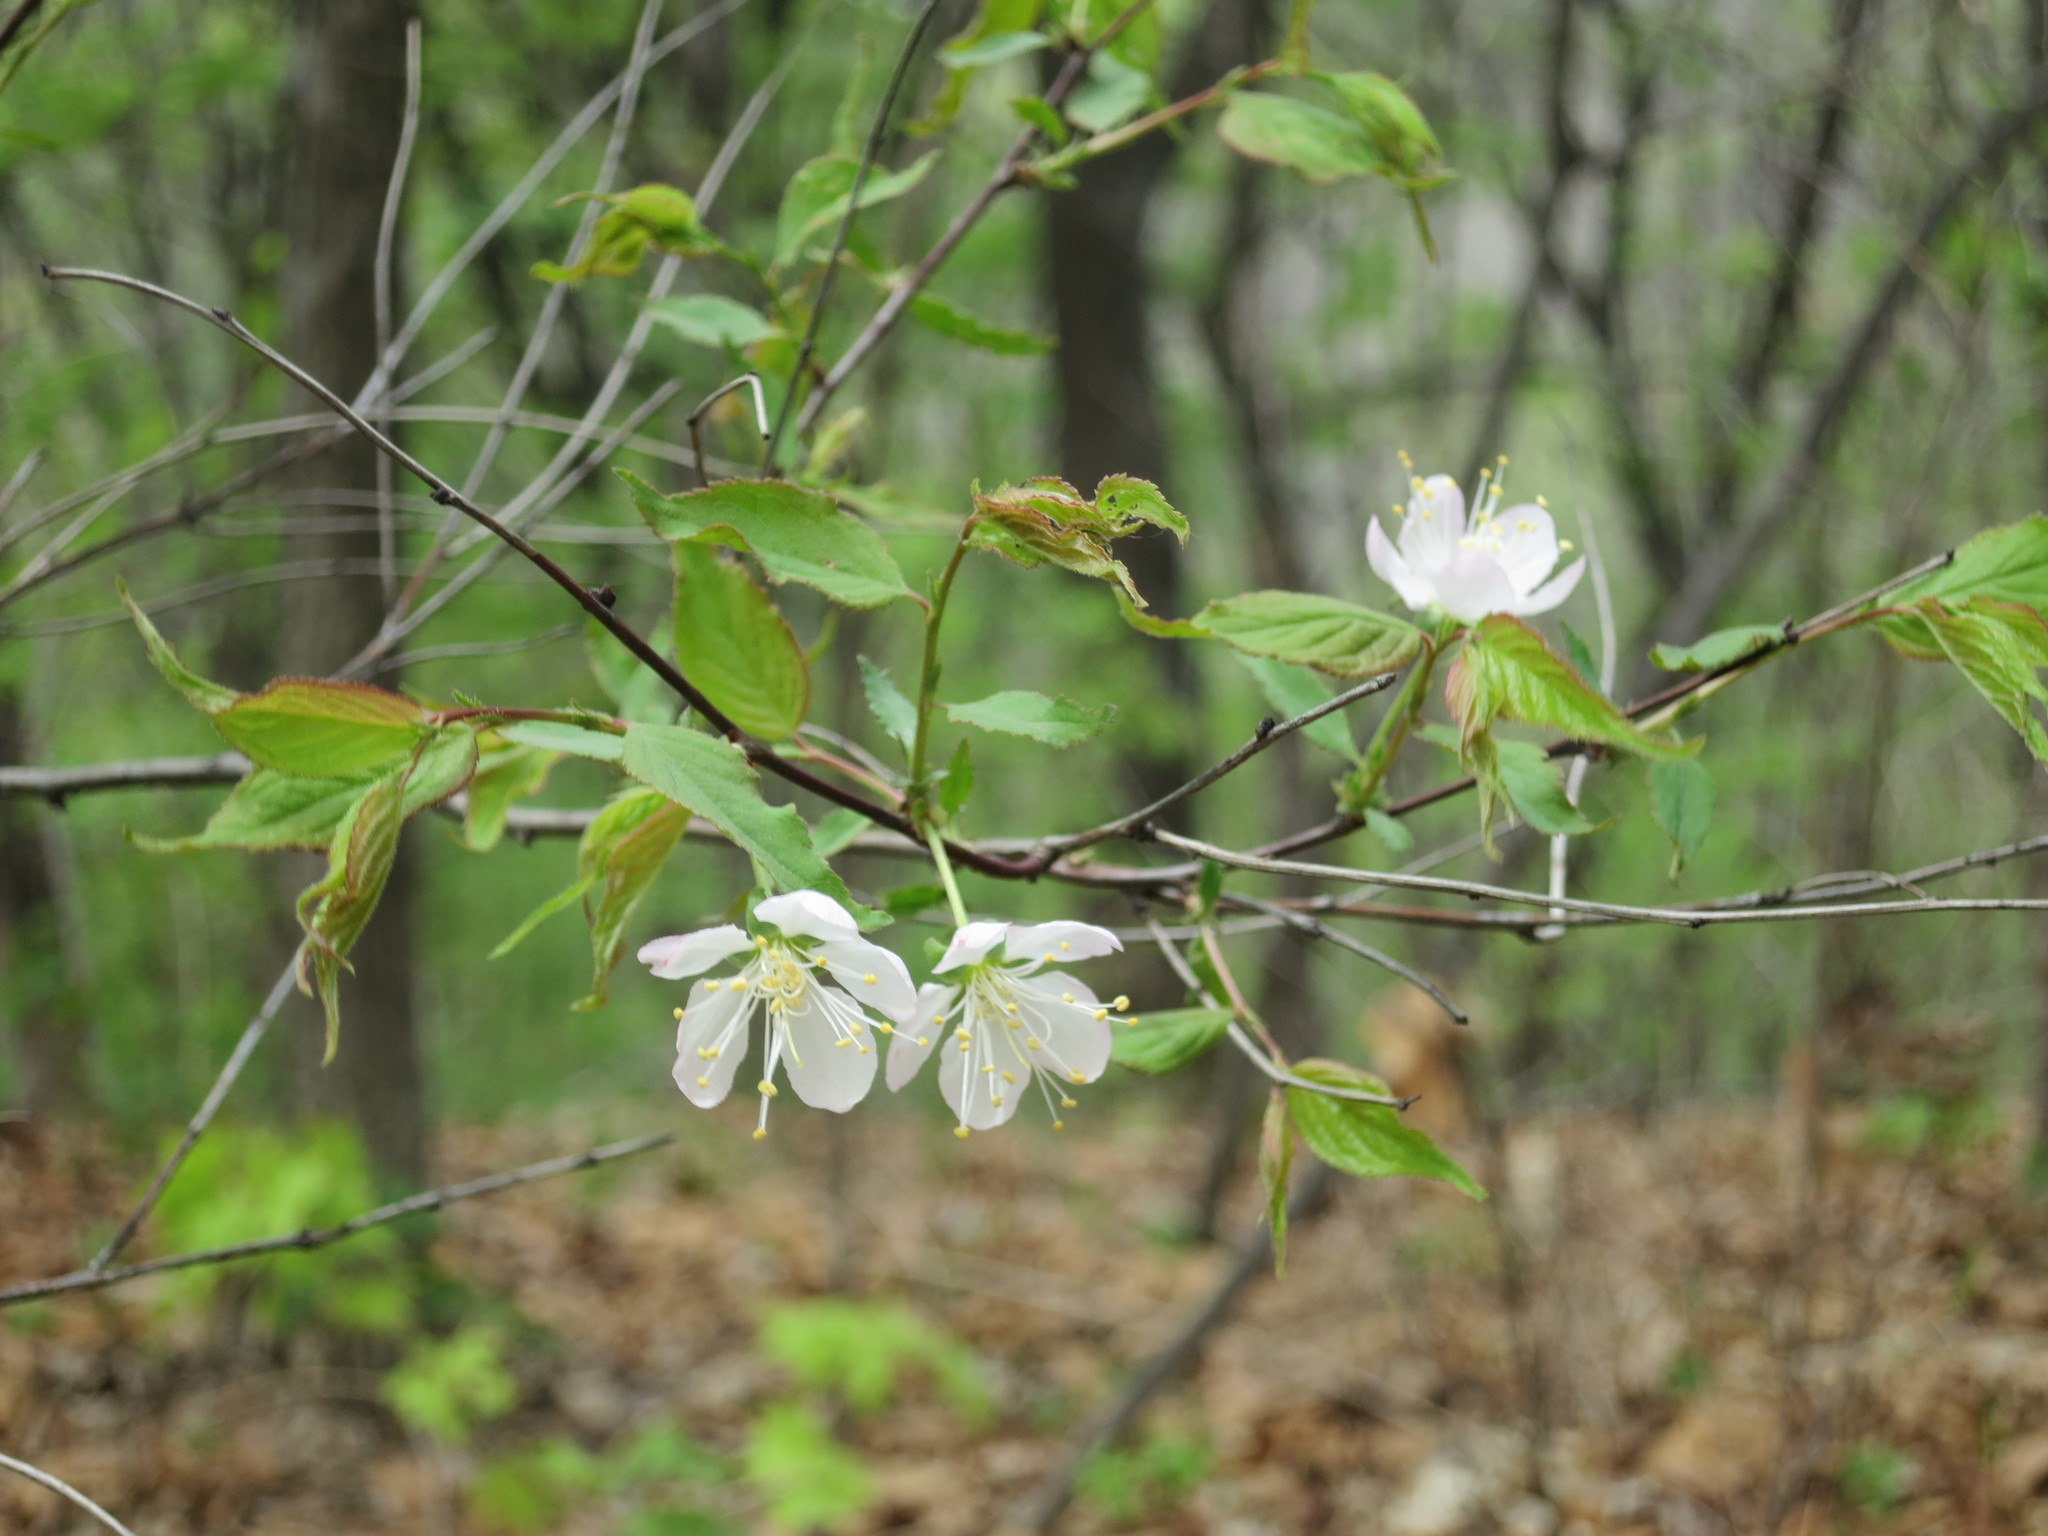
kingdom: Plantae
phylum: Tracheophyta
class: Magnoliopsida
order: Rosales
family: Rosaceae
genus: Prunus
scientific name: Prunus glandulosa
